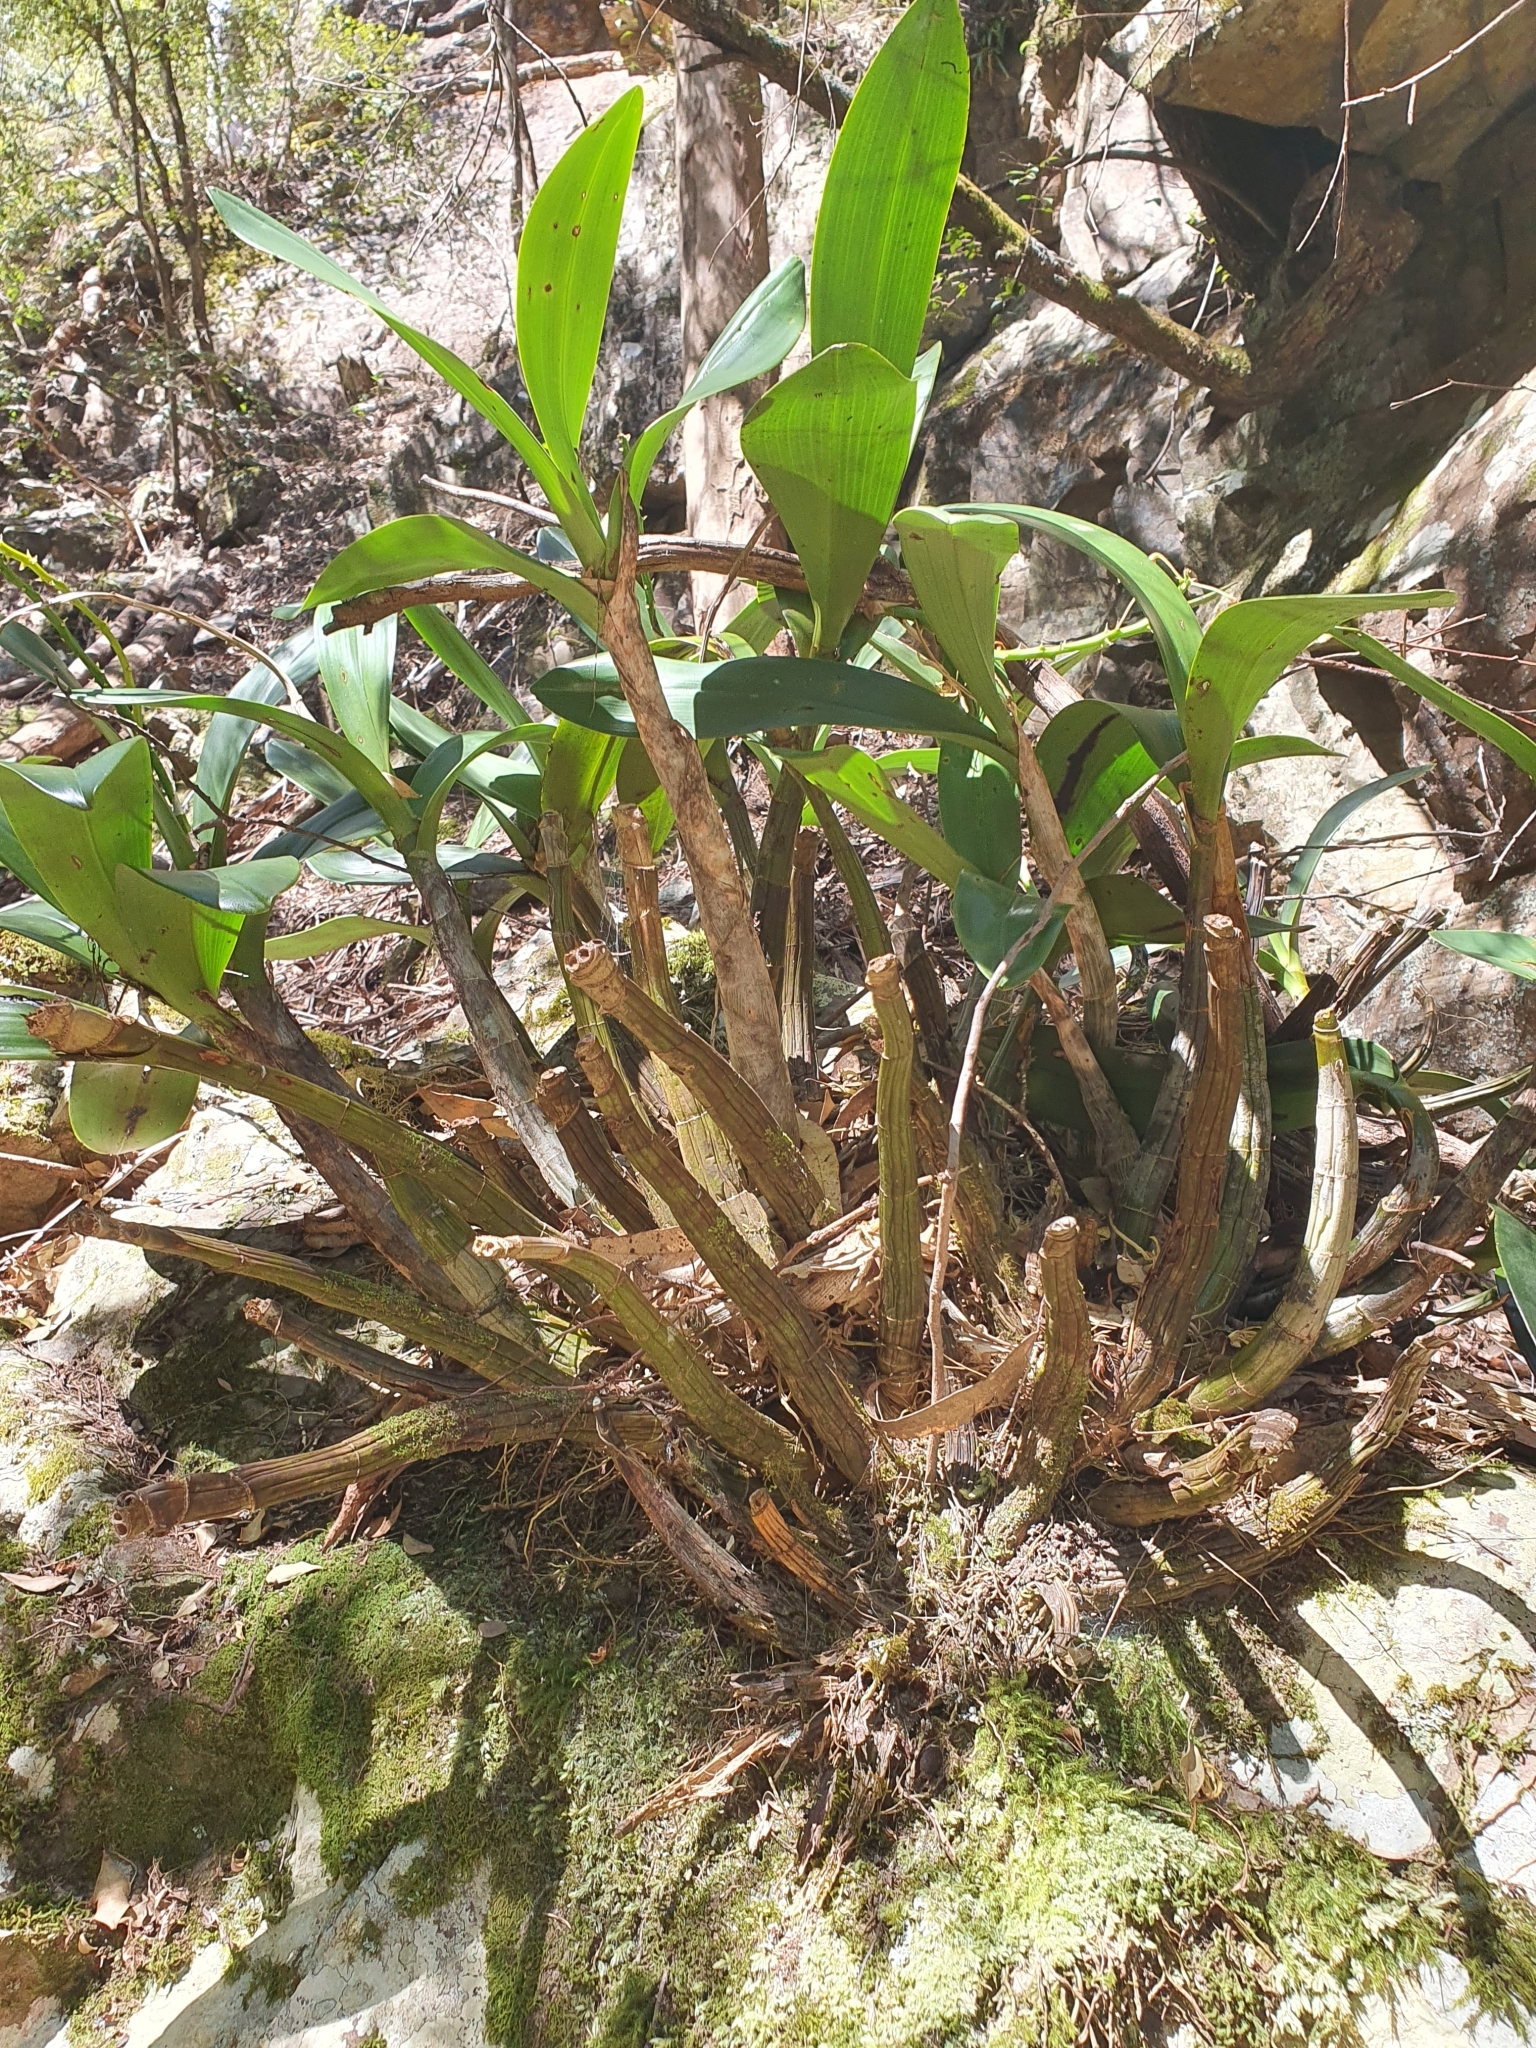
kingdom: Plantae
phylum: Tracheophyta
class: Liliopsida
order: Asparagales
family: Orchidaceae
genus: Dendrobium
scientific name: Dendrobium speciosum
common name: Rock-lily
